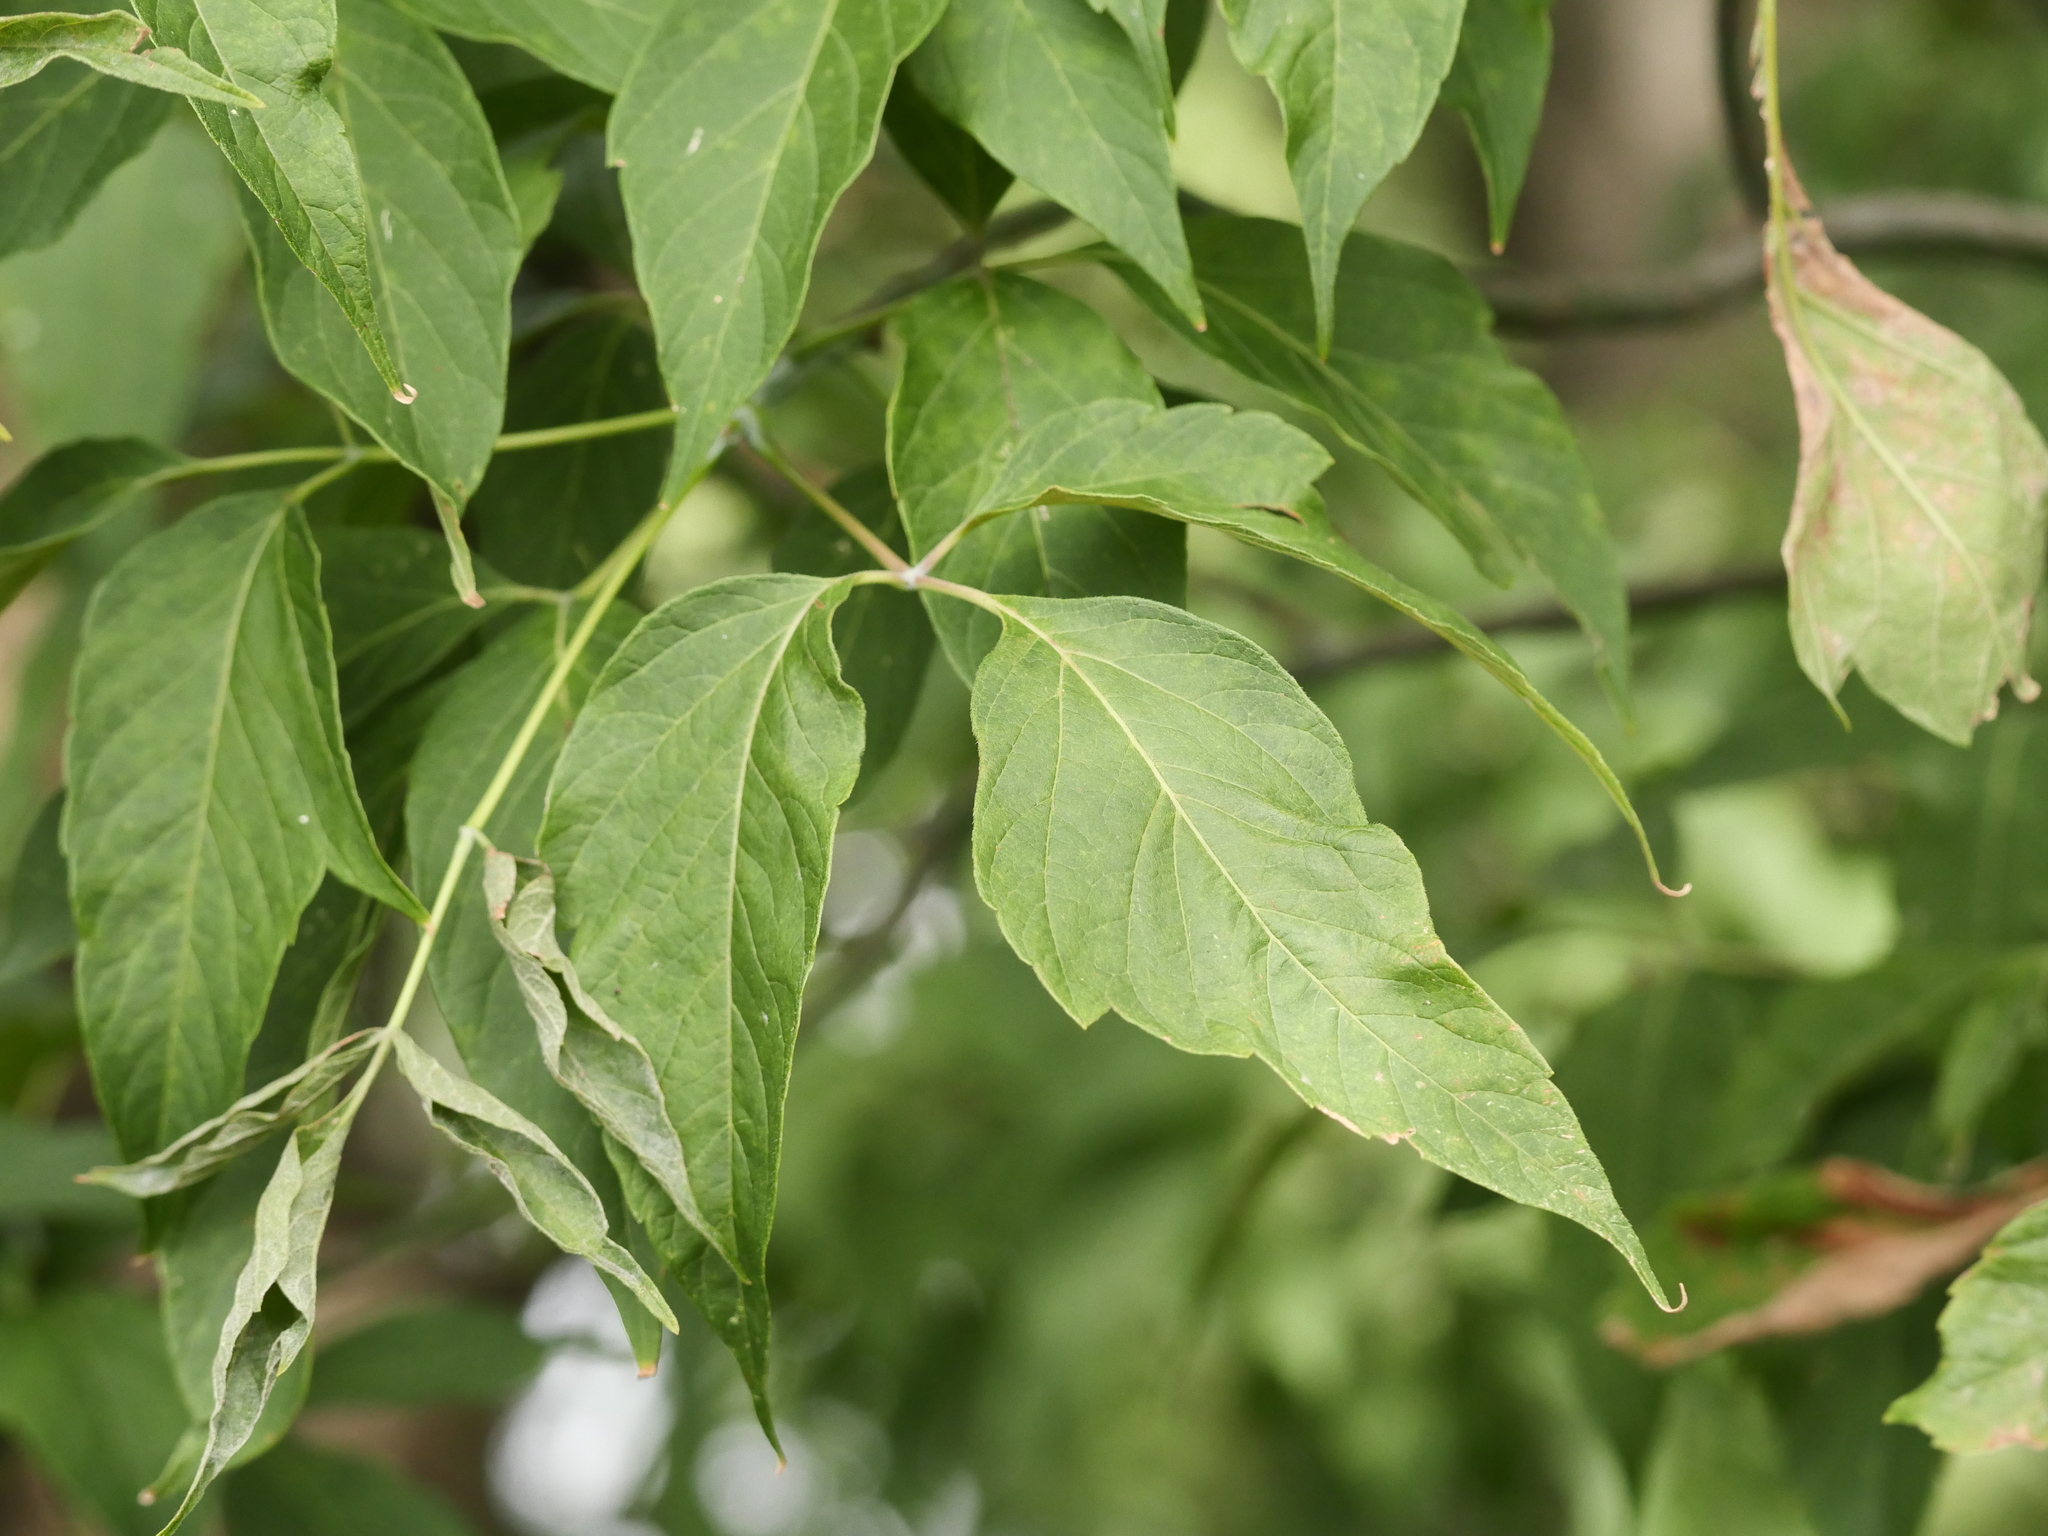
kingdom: Plantae
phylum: Tracheophyta
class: Magnoliopsida
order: Sapindales
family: Sapindaceae
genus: Acer
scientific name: Acer negundo
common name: Ashleaf maple
